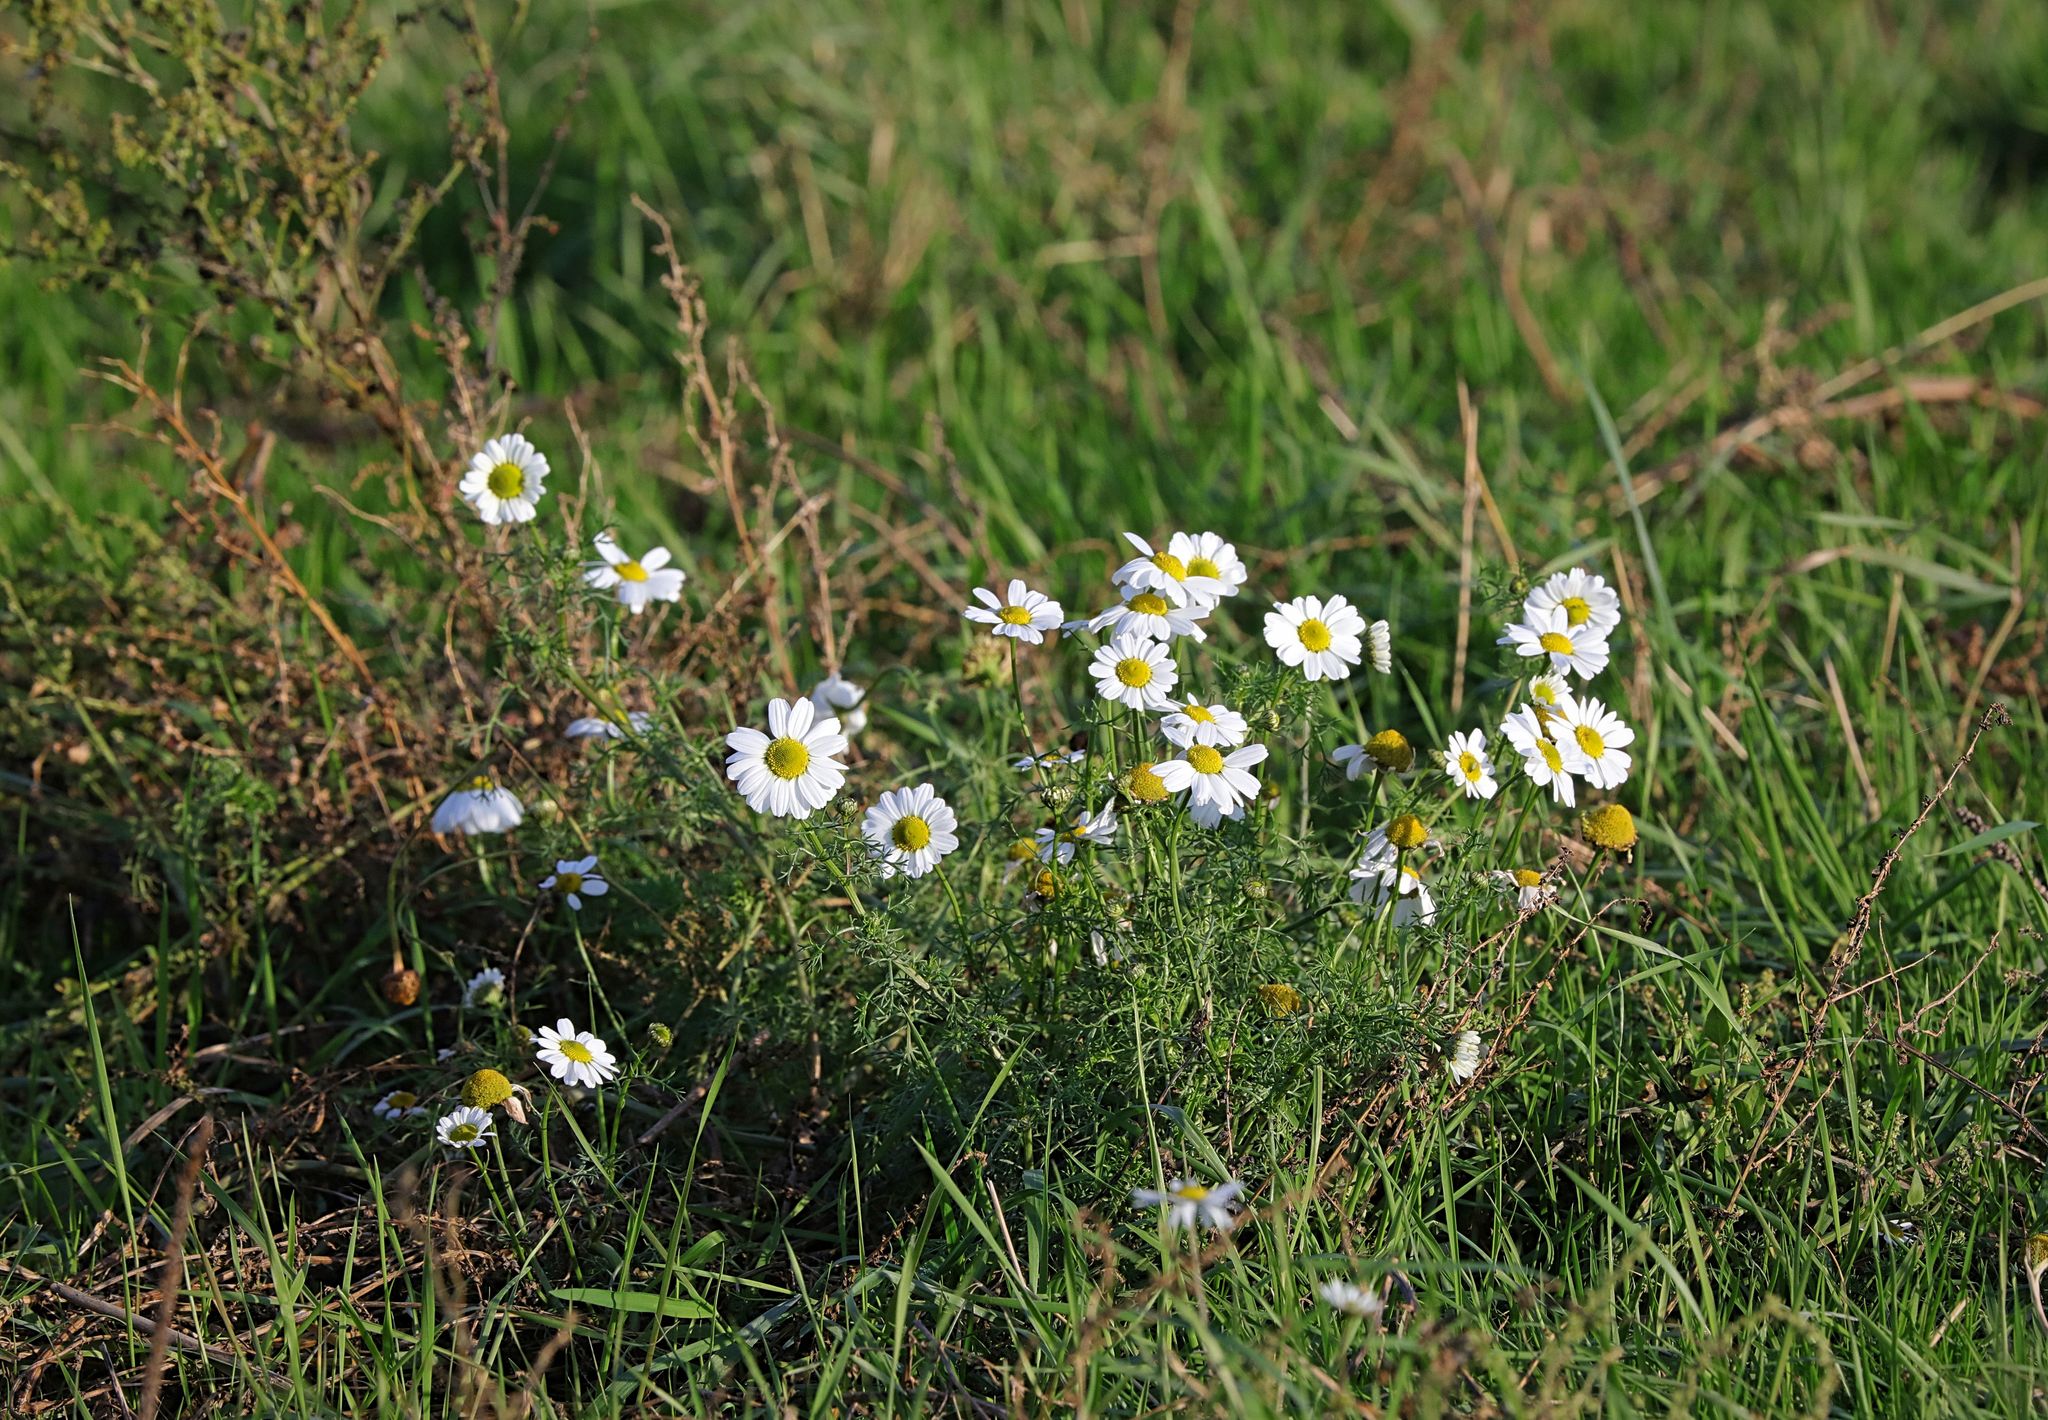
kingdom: Plantae
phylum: Tracheophyta
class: Magnoliopsida
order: Asterales
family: Asteraceae
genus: Tripleurospermum
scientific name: Tripleurospermum inodorum
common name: Scentless mayweed
